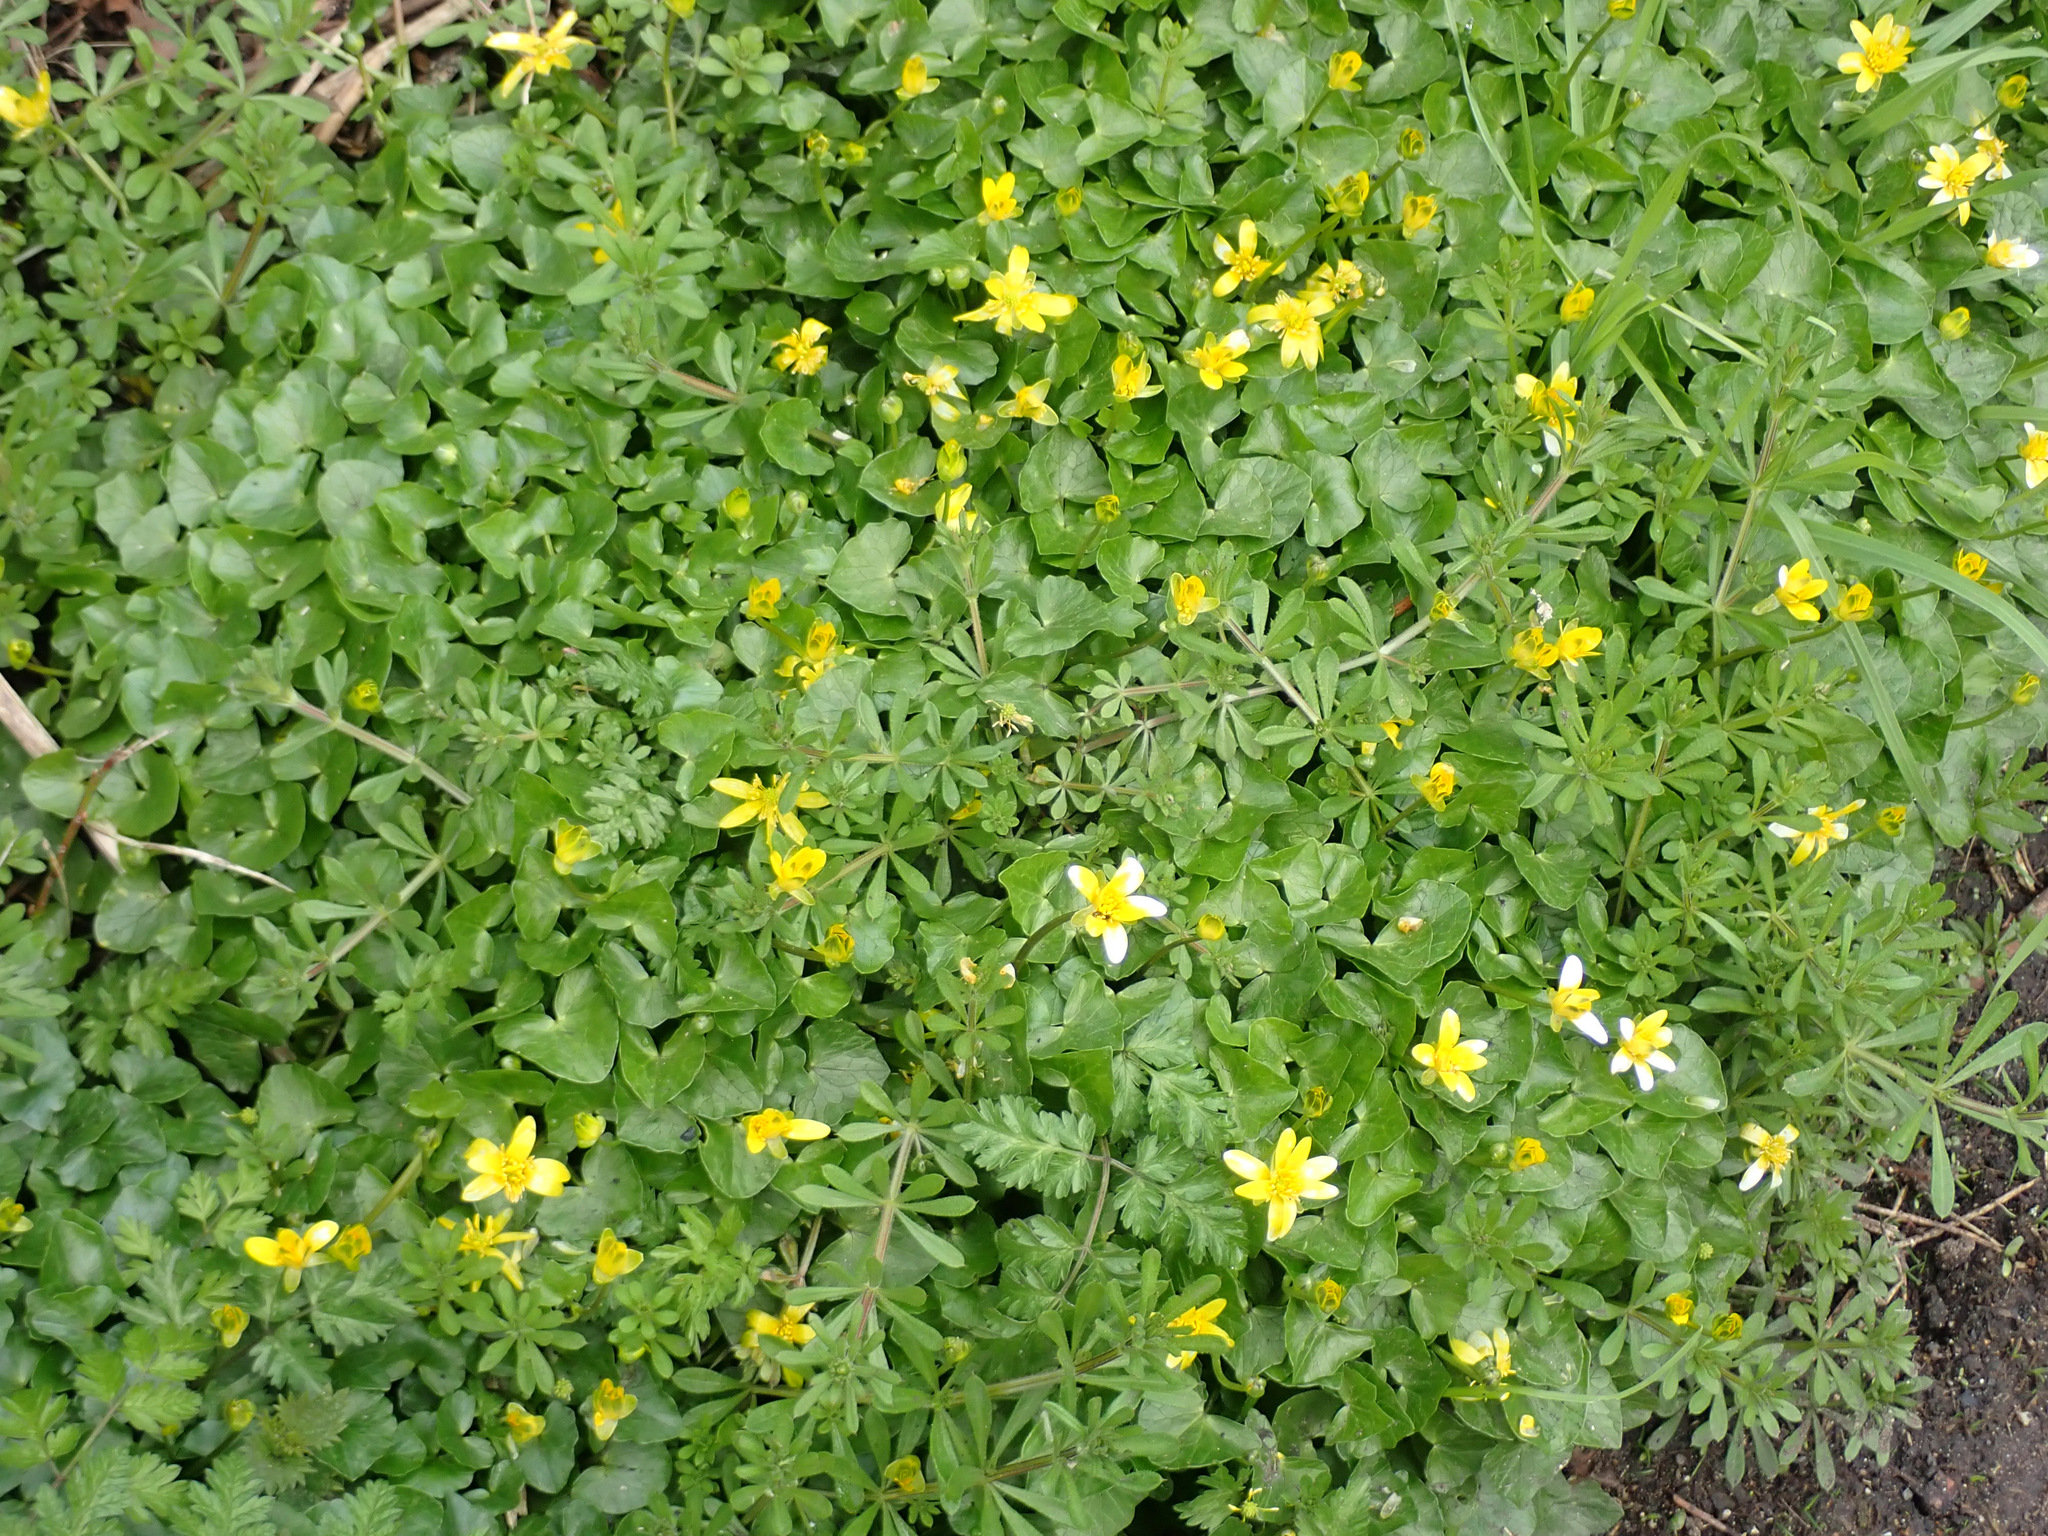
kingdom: Plantae
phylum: Tracheophyta
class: Magnoliopsida
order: Ranunculales
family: Ranunculaceae
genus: Ficaria
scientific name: Ficaria verna
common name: Lesser celandine
